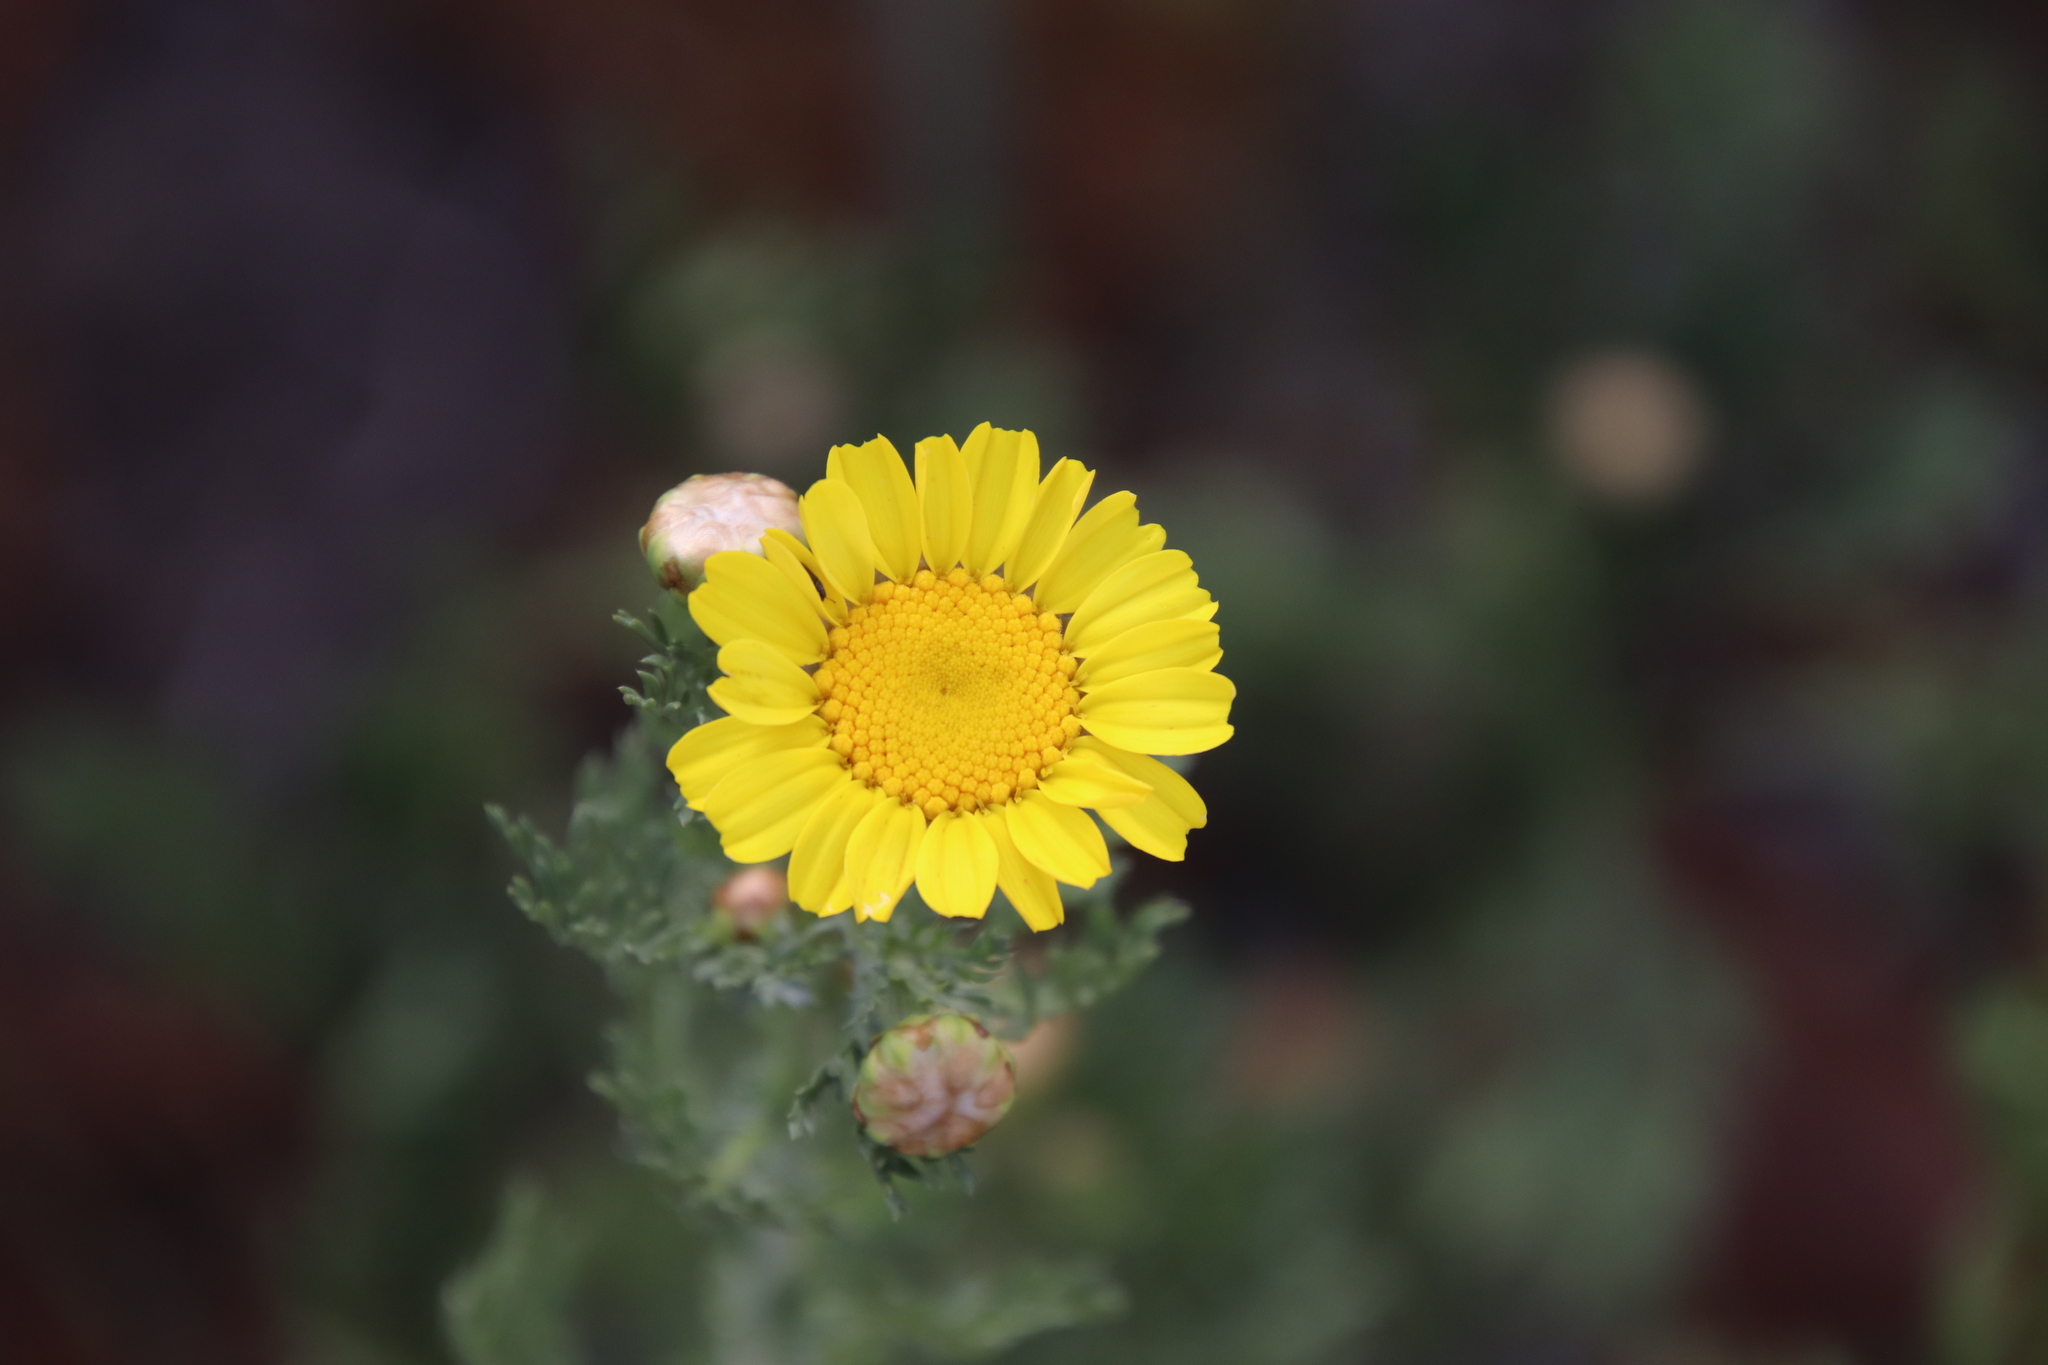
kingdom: Plantae
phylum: Tracheophyta
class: Magnoliopsida
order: Asterales
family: Asteraceae
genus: Glebionis
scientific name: Glebionis coronaria
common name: Crowndaisy
